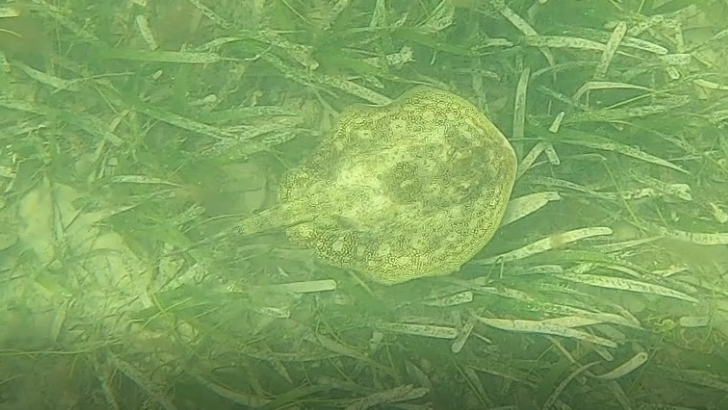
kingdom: Animalia
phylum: Chordata
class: Elasmobranchii
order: Myliobatiformes
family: Urotrygonidae
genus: Urobatis
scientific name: Urobatis jamaicensis
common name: Yellow stingray
